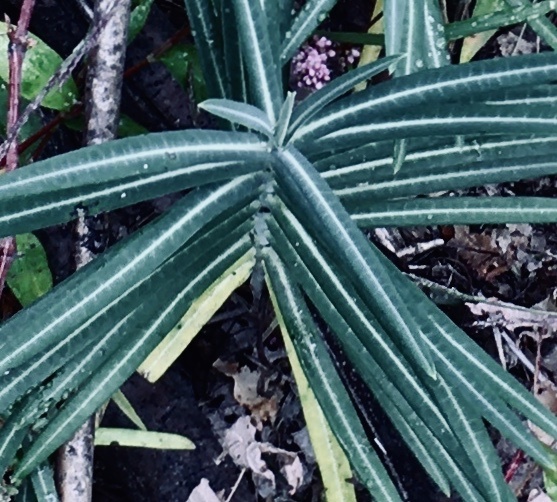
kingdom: Plantae
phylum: Tracheophyta
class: Magnoliopsida
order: Malpighiales
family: Euphorbiaceae
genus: Euphorbia
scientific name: Euphorbia lathyris
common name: Caper spurge
